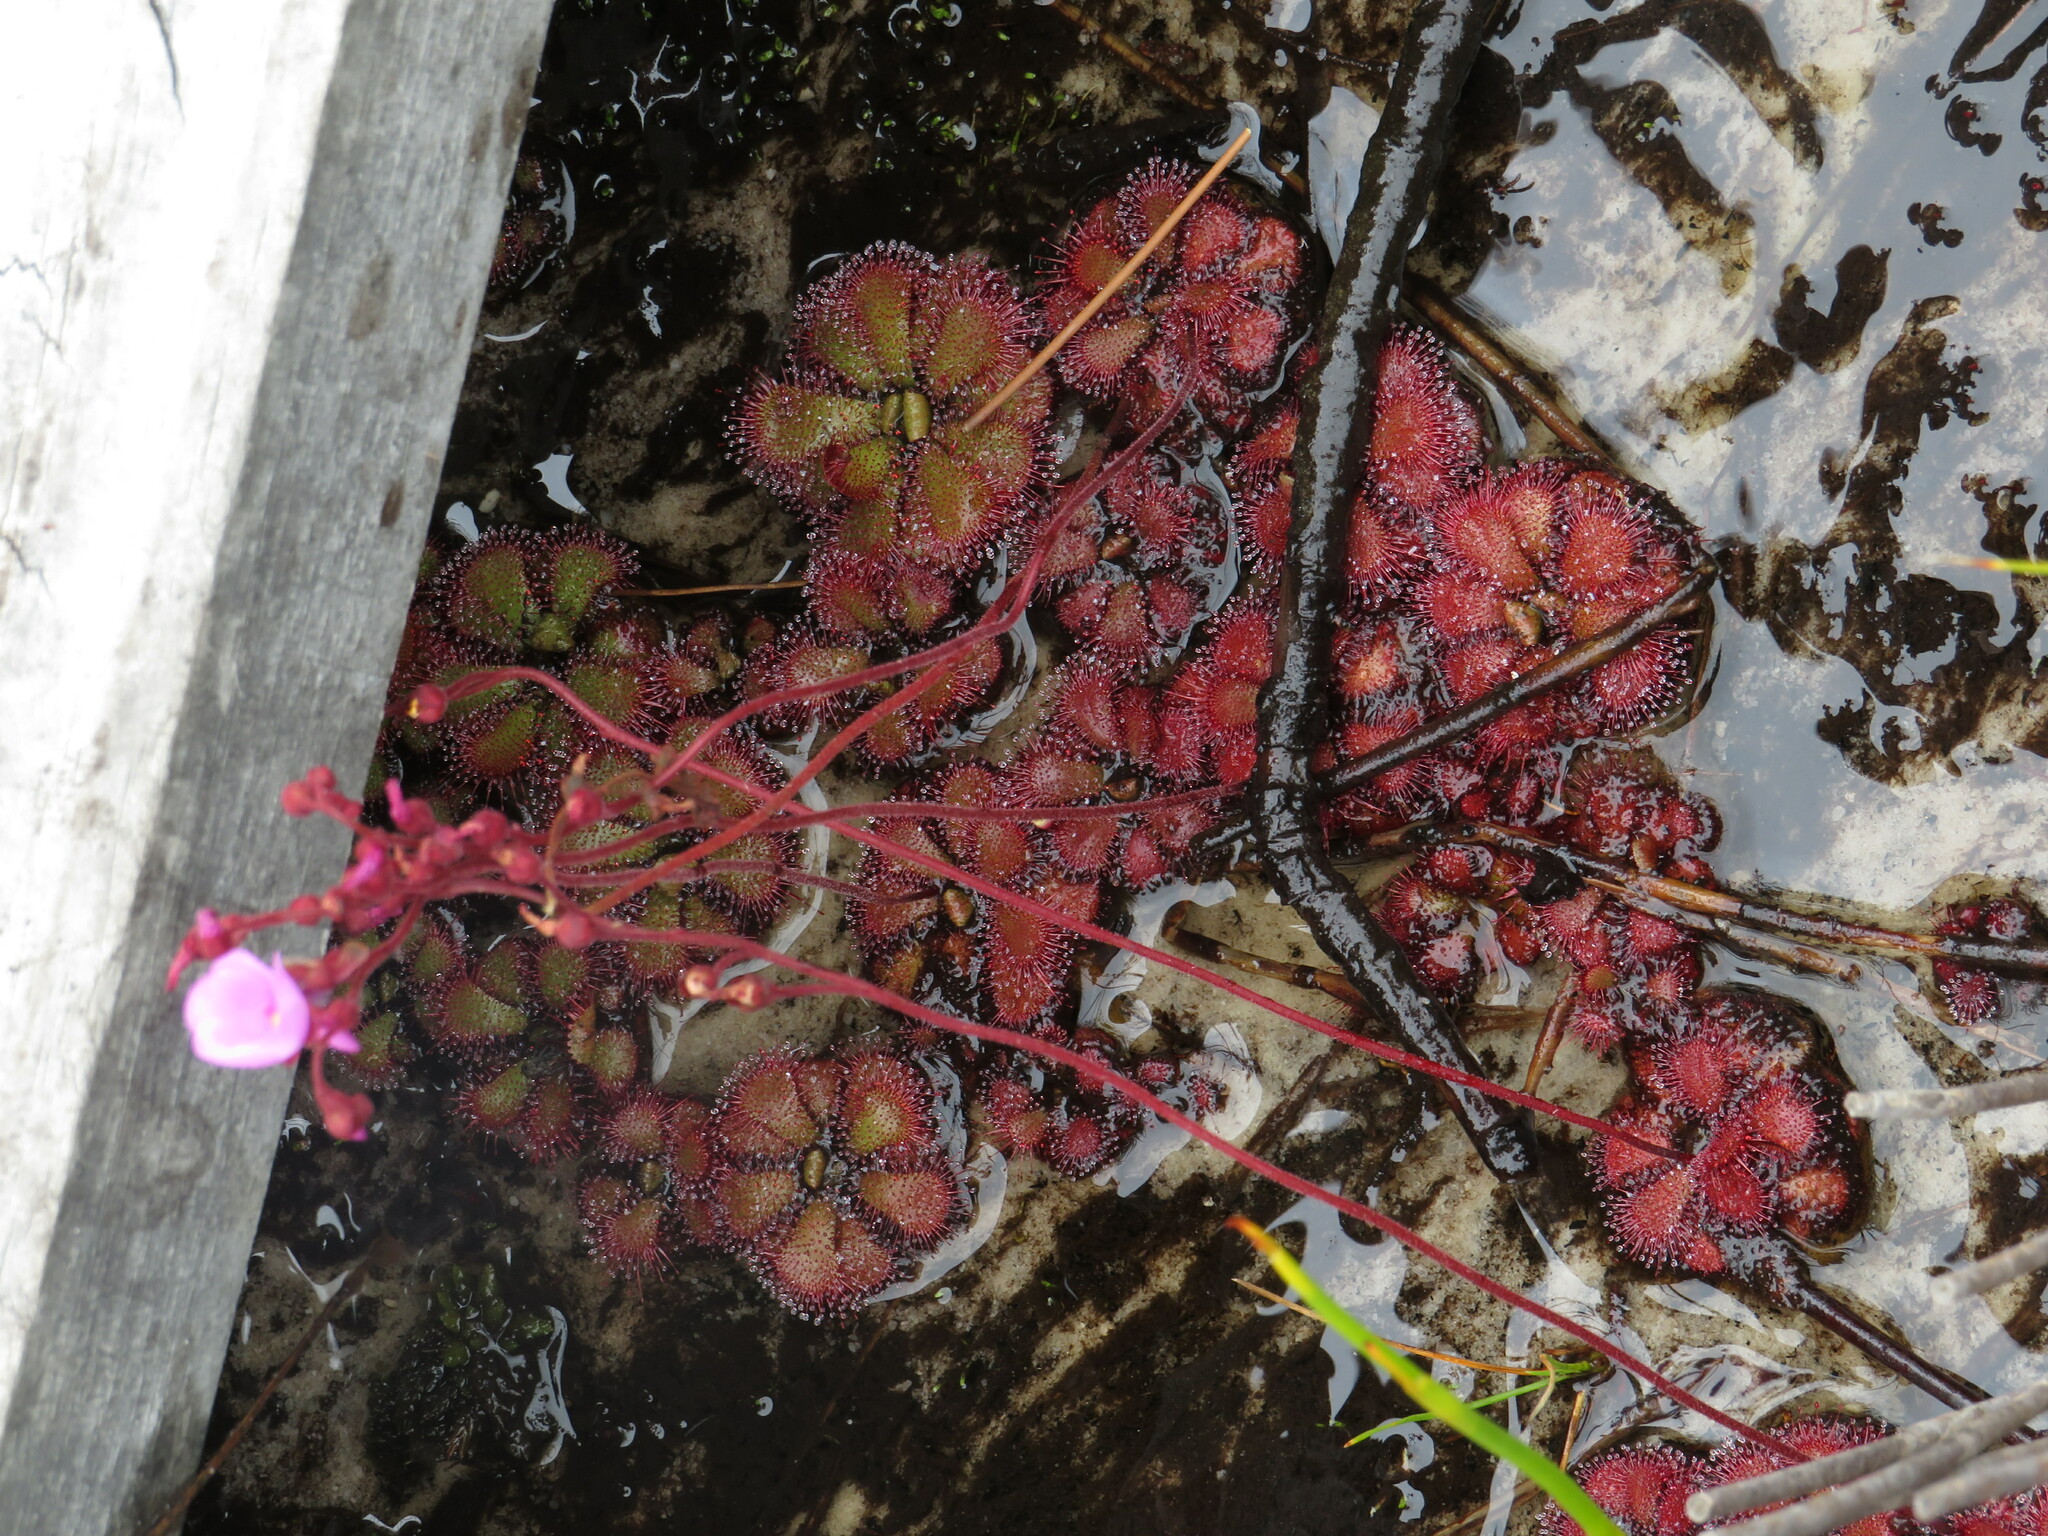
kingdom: Plantae
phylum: Tracheophyta
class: Magnoliopsida
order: Caryophyllales
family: Droseraceae
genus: Drosera
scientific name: Drosera cuneifolia
